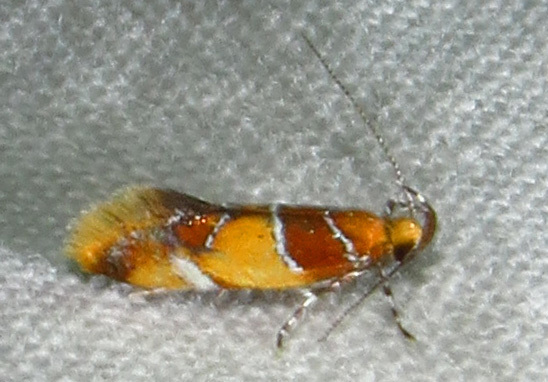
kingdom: Animalia
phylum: Arthropoda
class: Insecta
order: Lepidoptera
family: Oecophoridae
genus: Callima
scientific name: Callima argenticinctella
